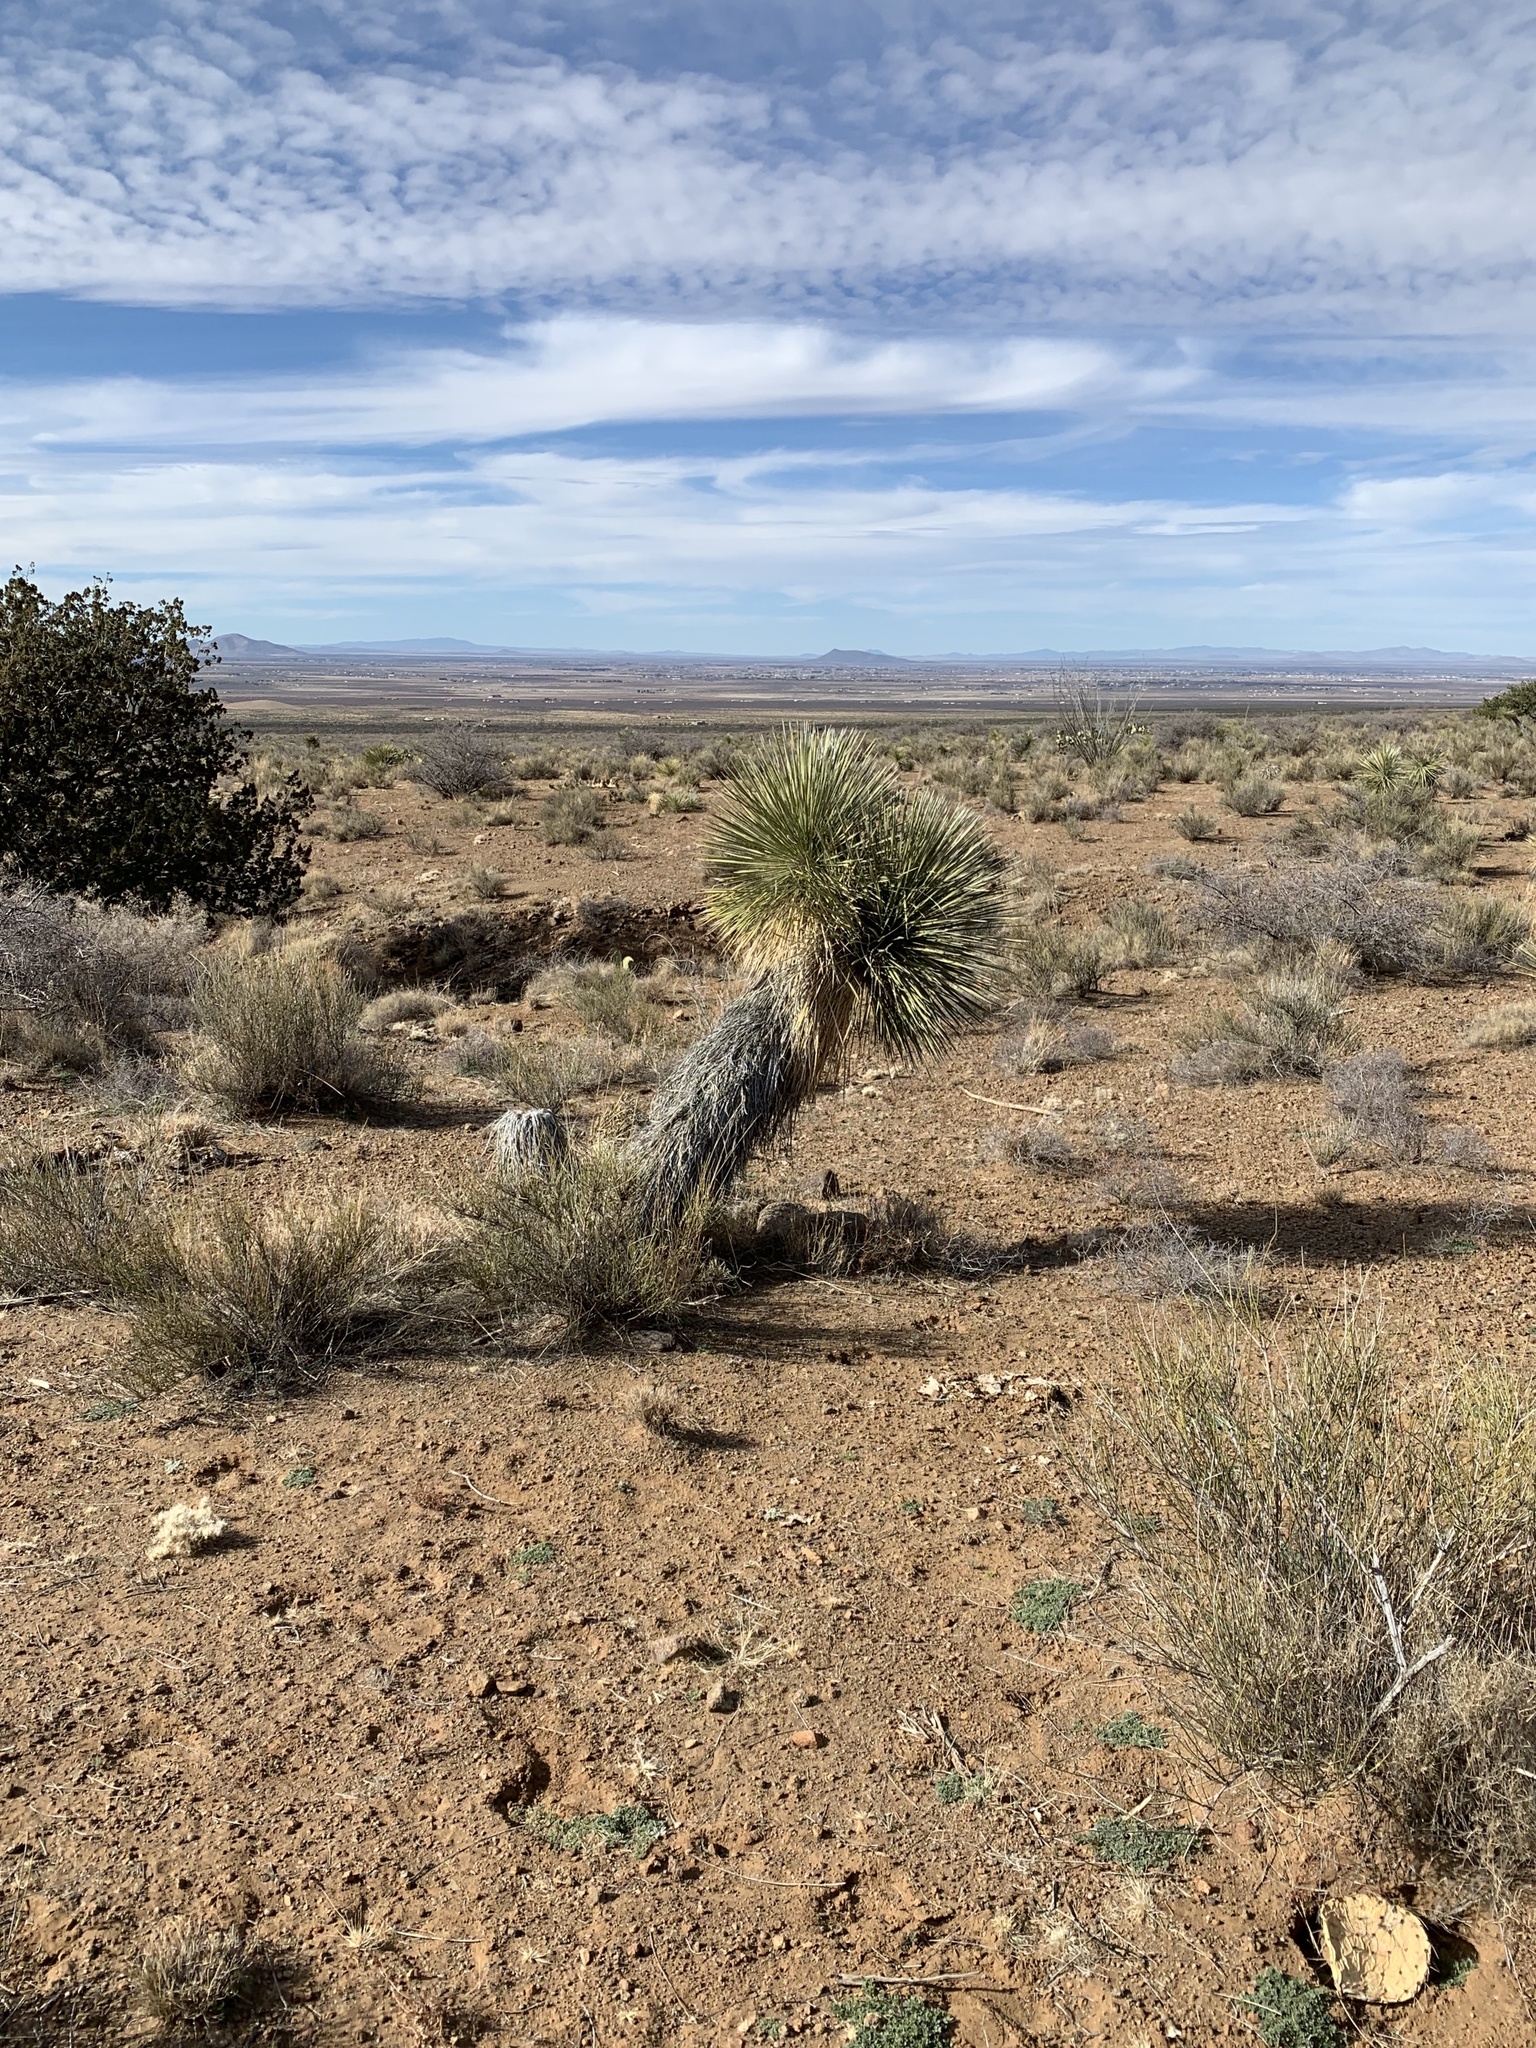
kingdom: Plantae
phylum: Tracheophyta
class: Liliopsida
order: Asparagales
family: Asparagaceae
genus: Yucca
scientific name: Yucca elata
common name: Palmella
